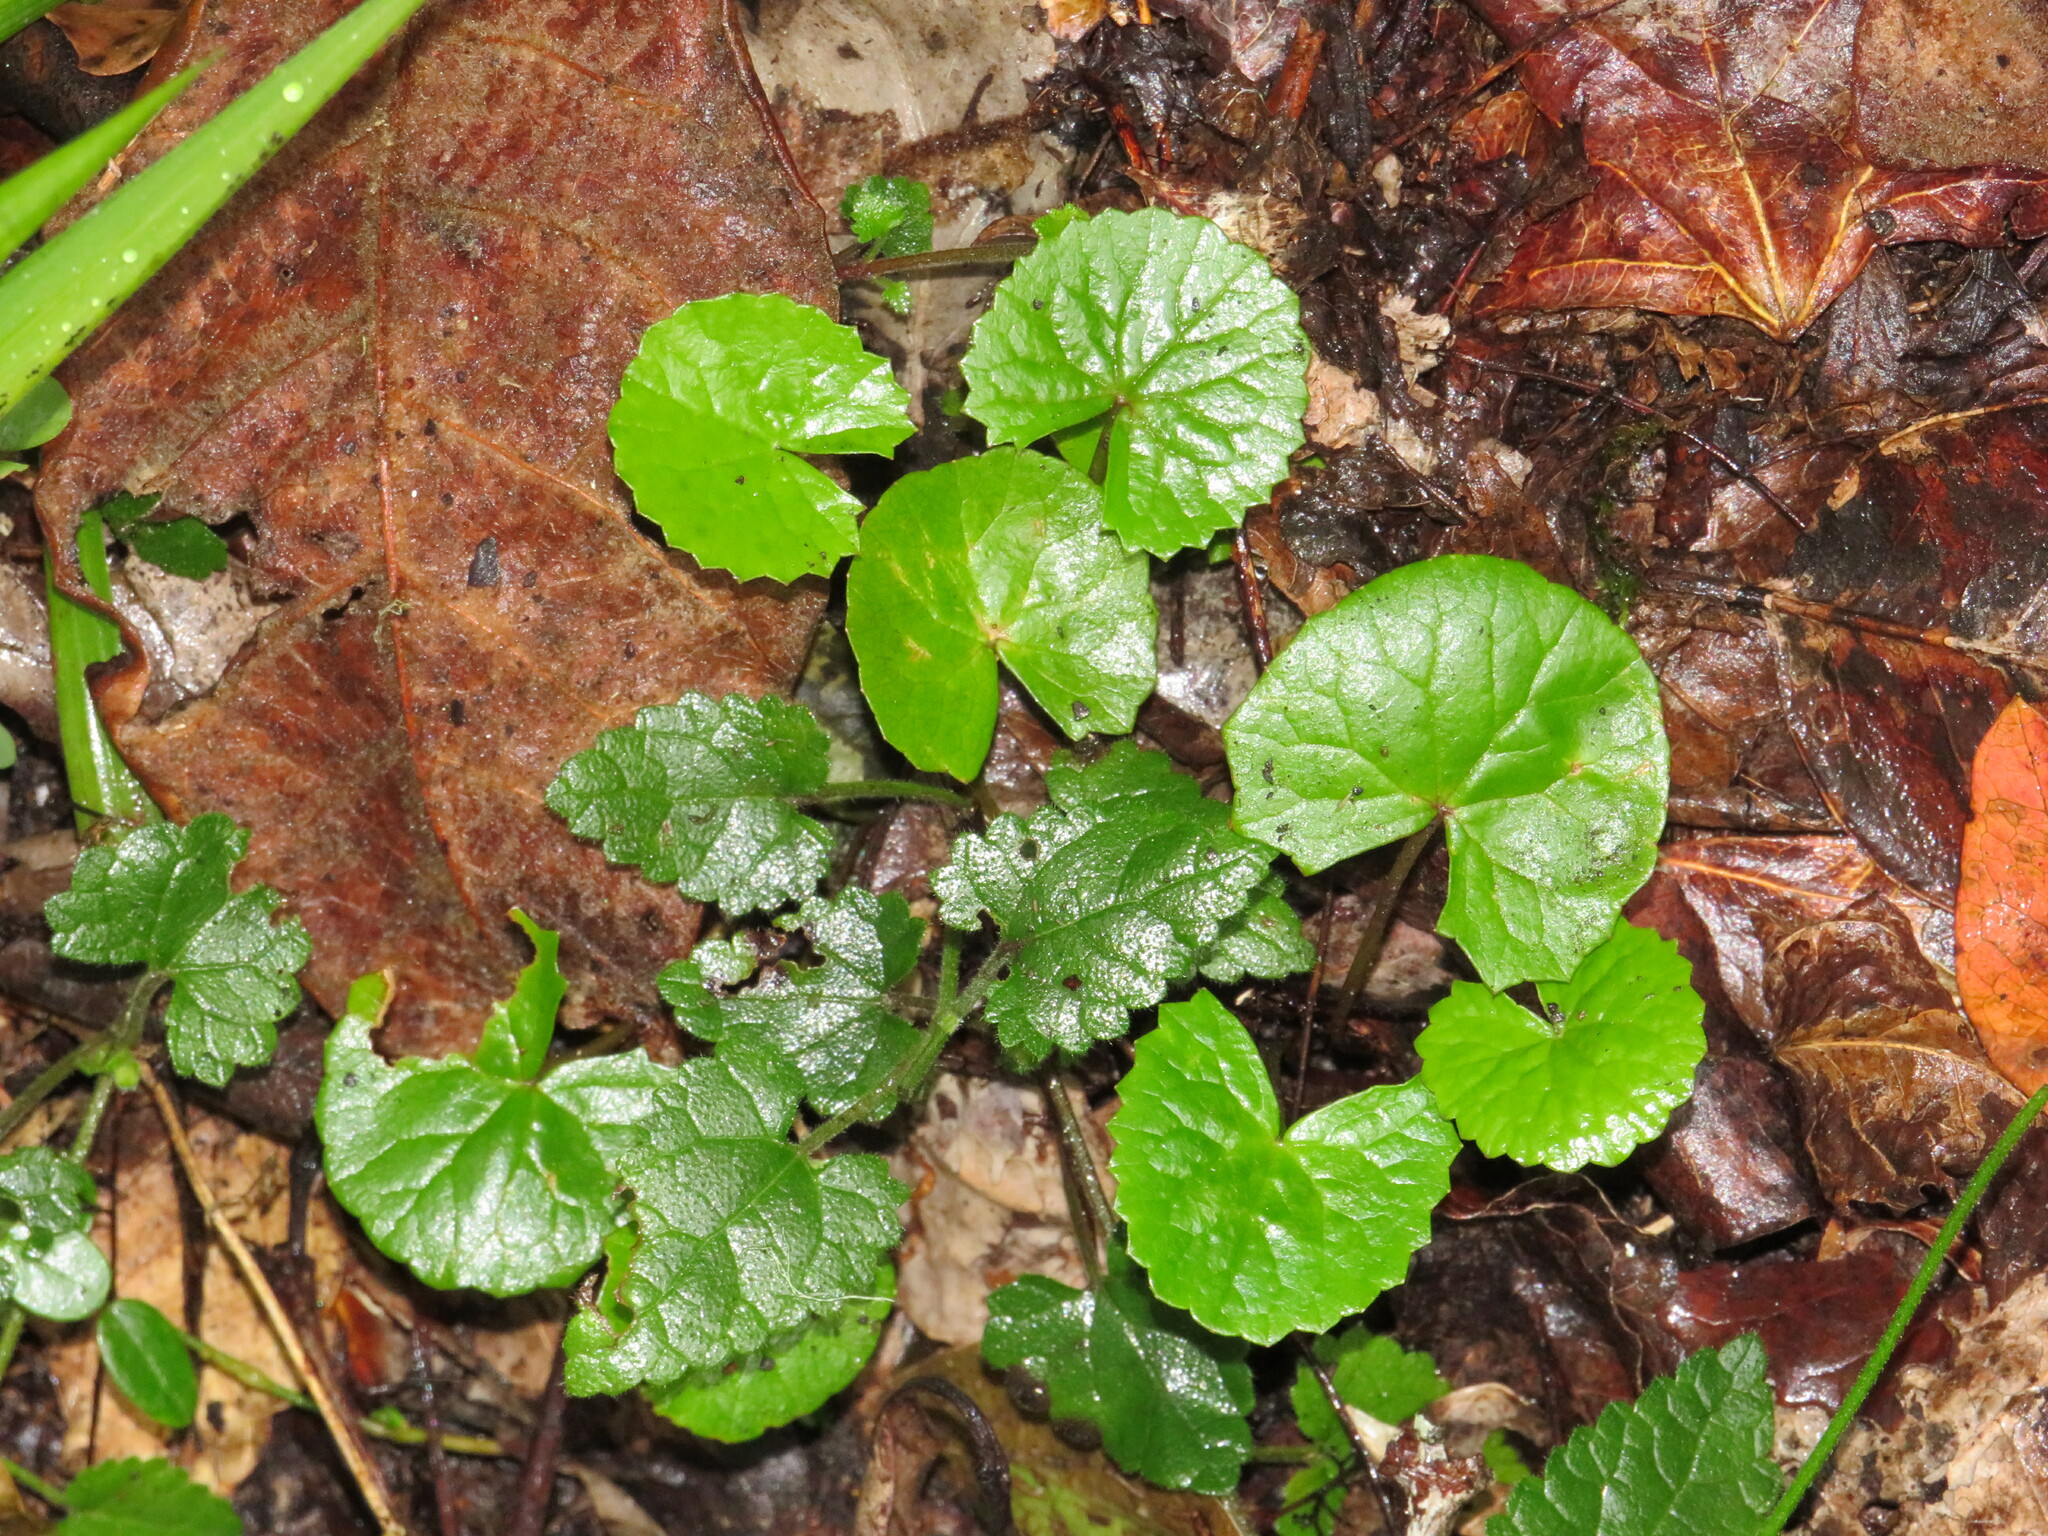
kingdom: Plantae
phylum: Tracheophyta
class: Magnoliopsida
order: Apiales
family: Apiaceae
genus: Centella
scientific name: Centella asiatica
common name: Spadeleaf
